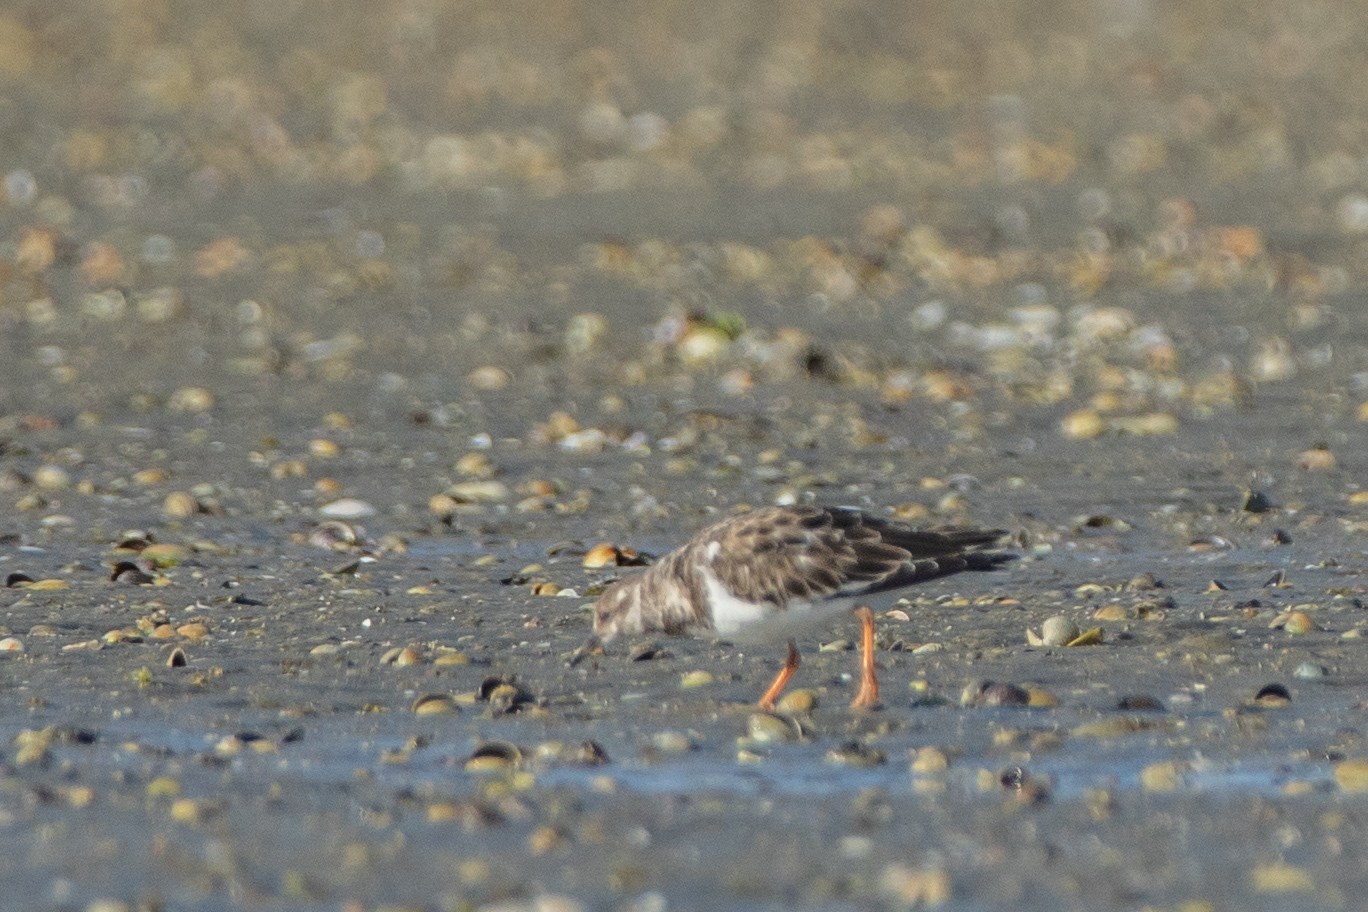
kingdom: Animalia
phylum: Chordata
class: Aves
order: Charadriiformes
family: Scolopacidae
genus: Arenaria
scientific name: Arenaria interpres
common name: Ruddy turnstone
